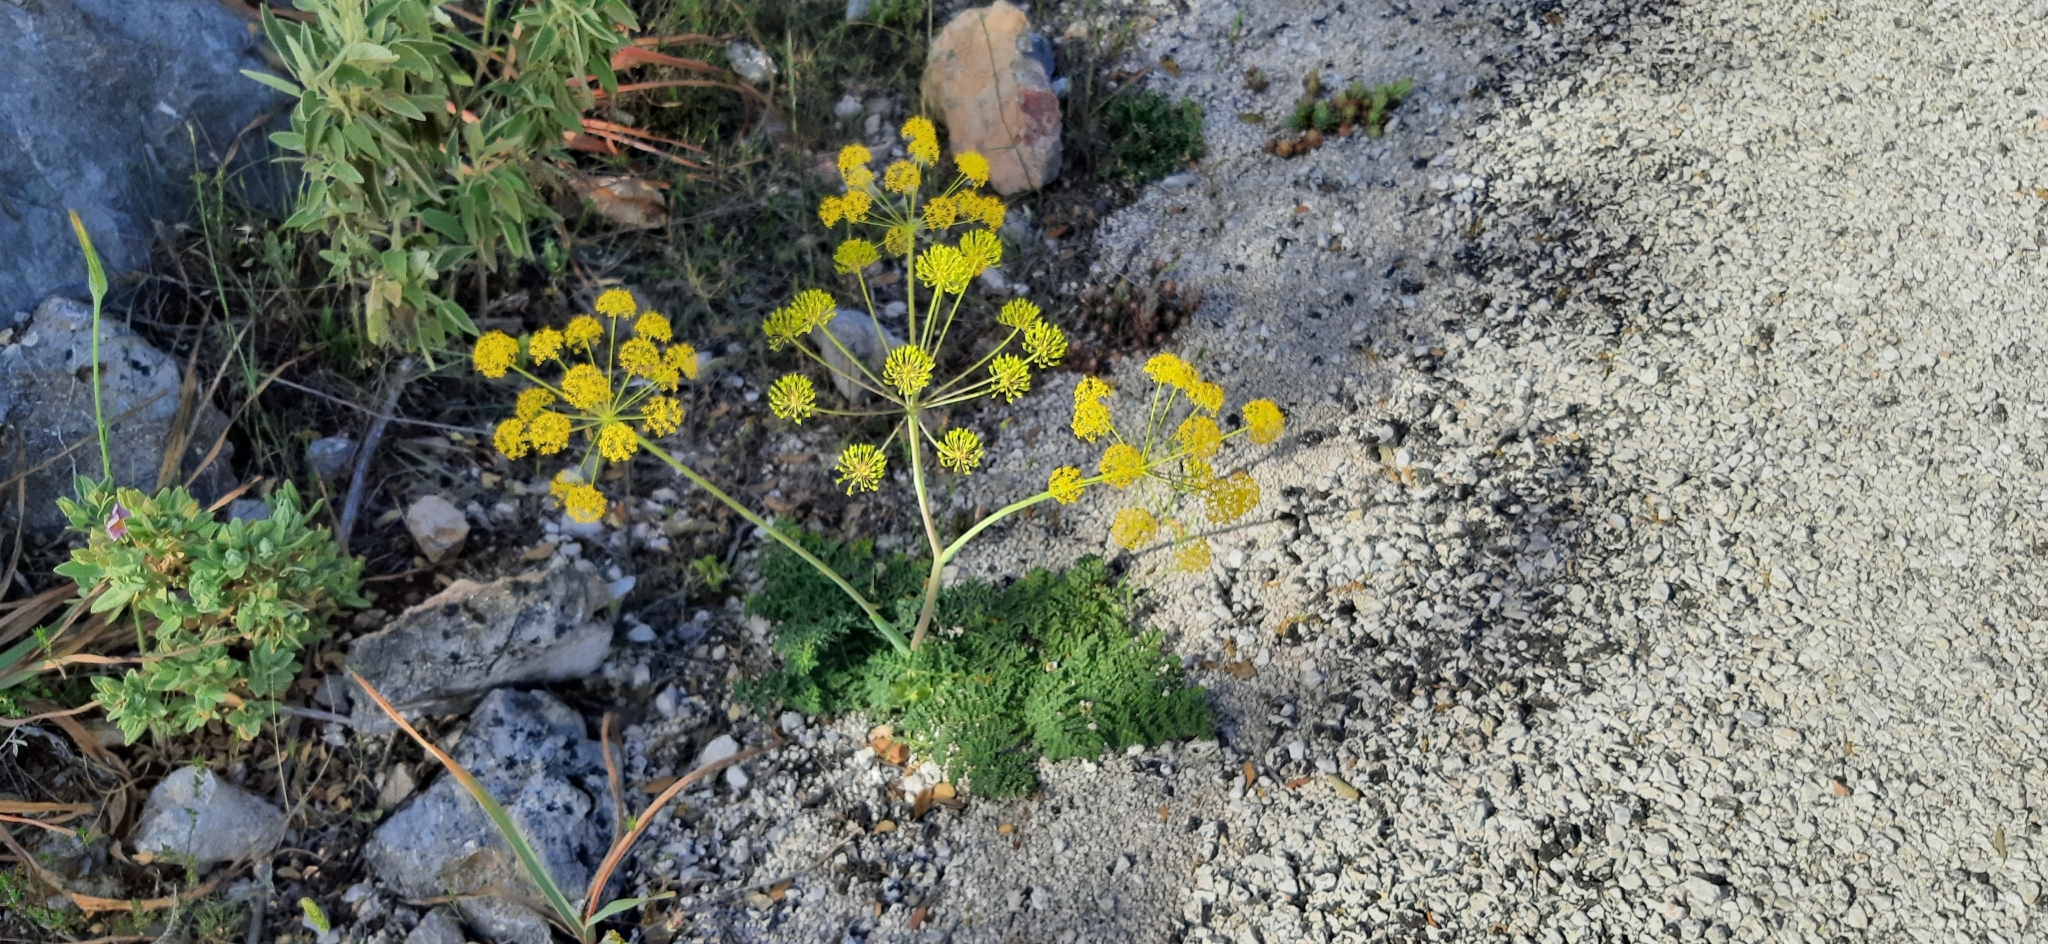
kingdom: Plantae
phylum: Tracheophyta
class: Magnoliopsida
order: Apiales
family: Apiaceae
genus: Thapsia
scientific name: Thapsia villosa
